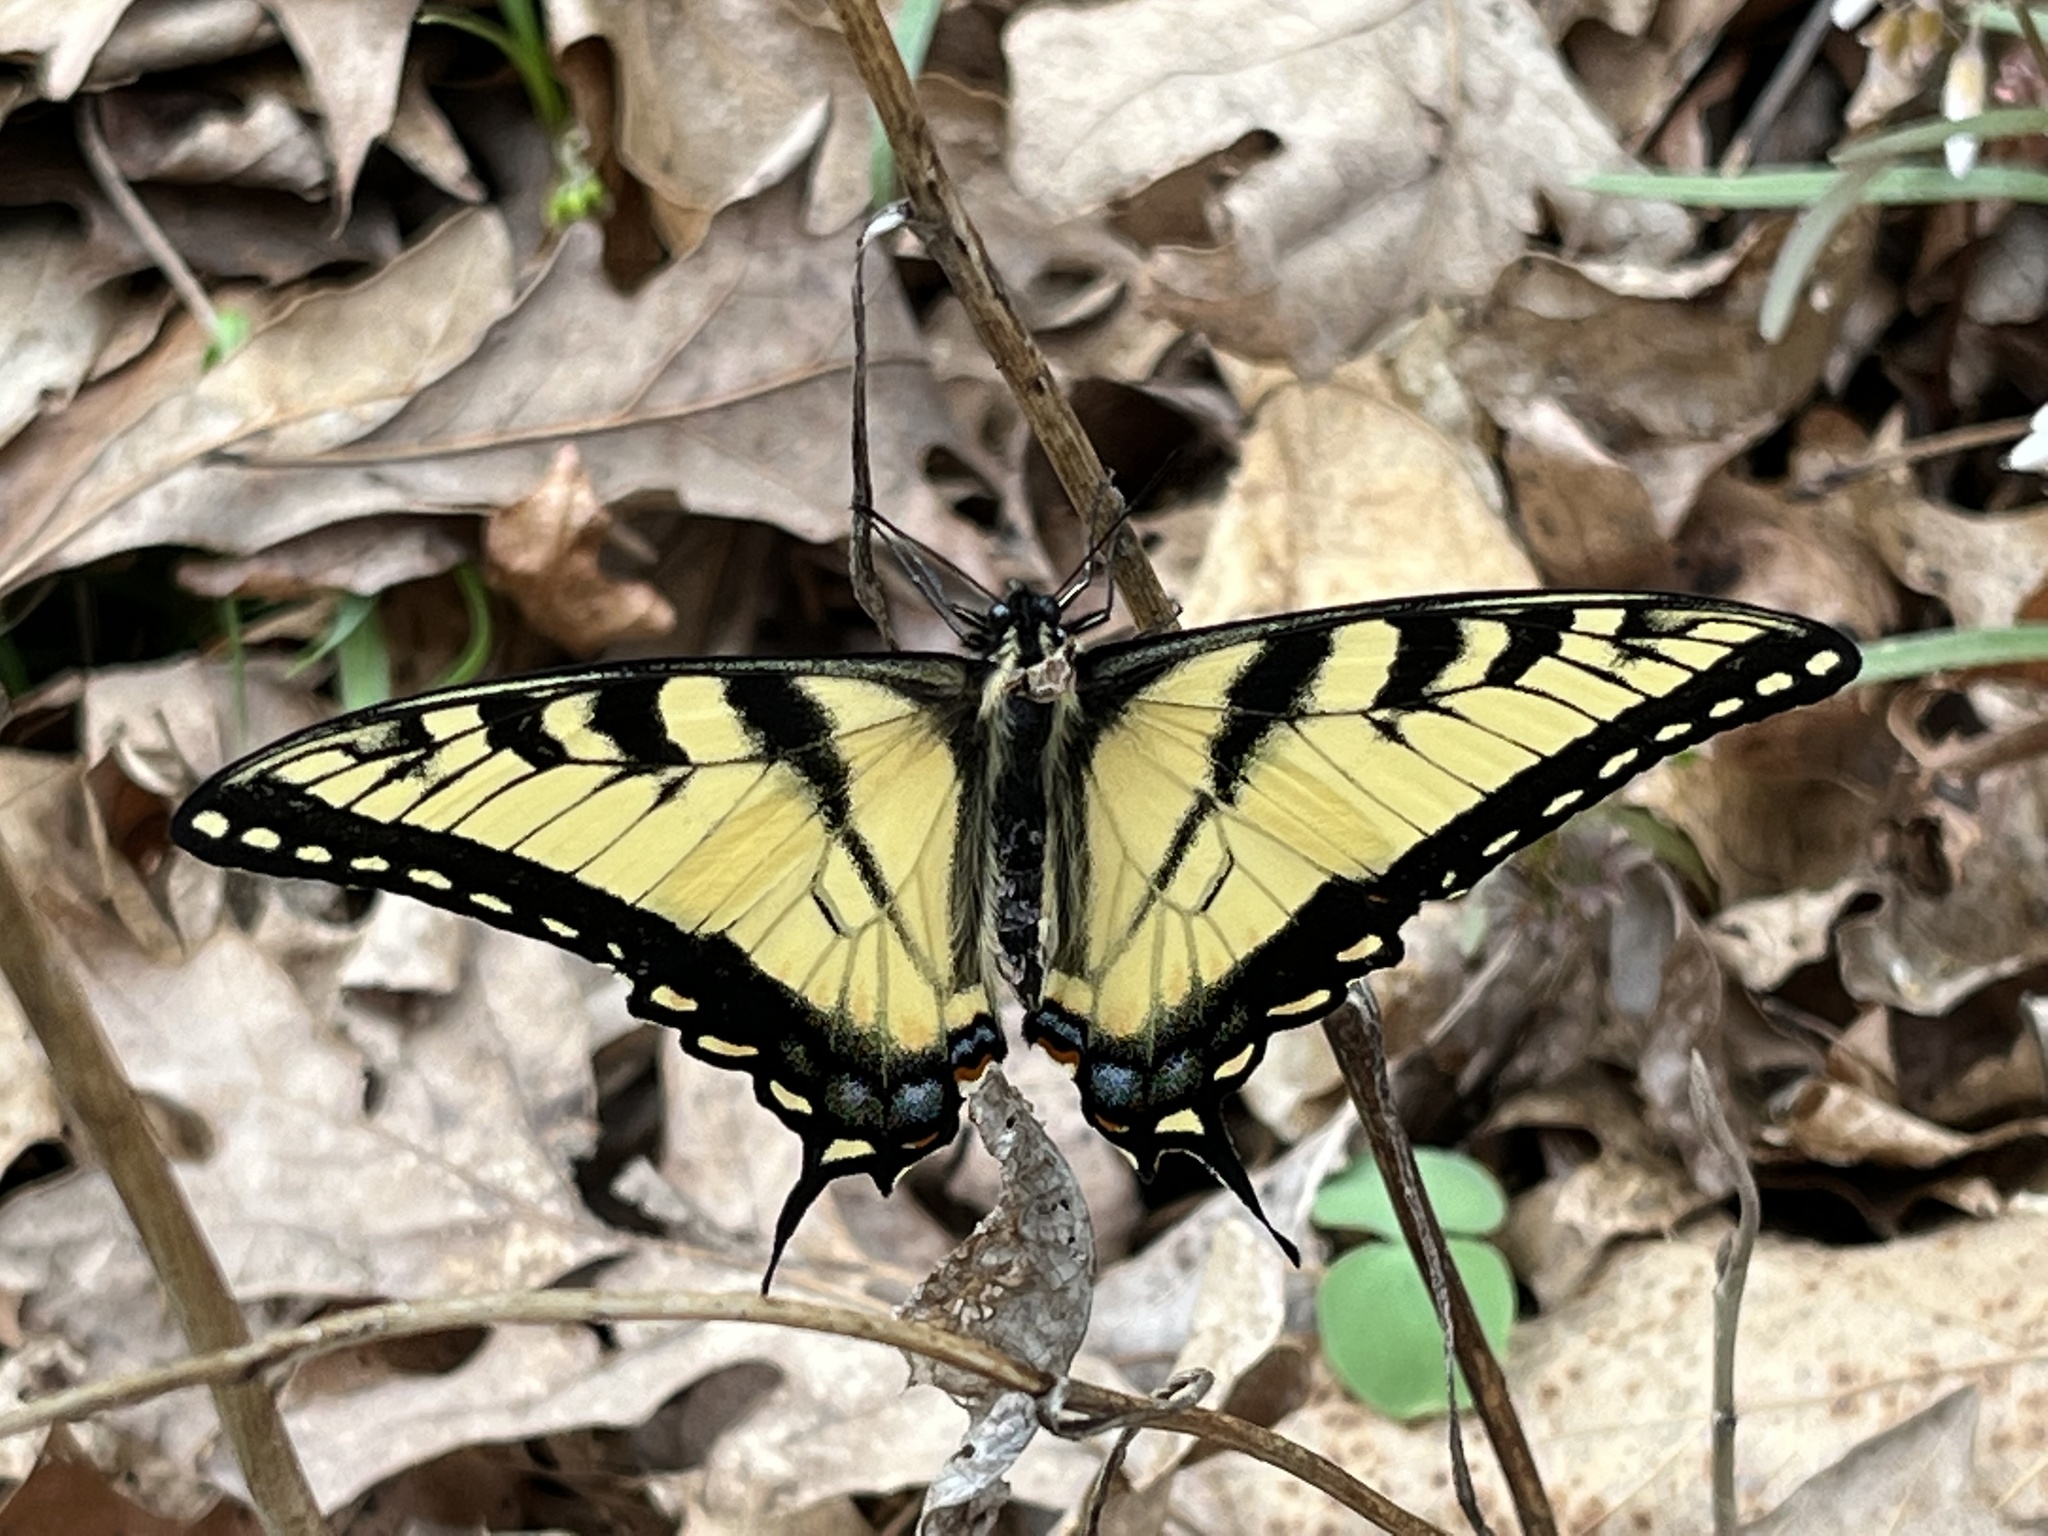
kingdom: Animalia
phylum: Arthropoda
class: Insecta
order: Lepidoptera
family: Papilionidae
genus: Papilio
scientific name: Papilio glaucus
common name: Tiger swallowtail
